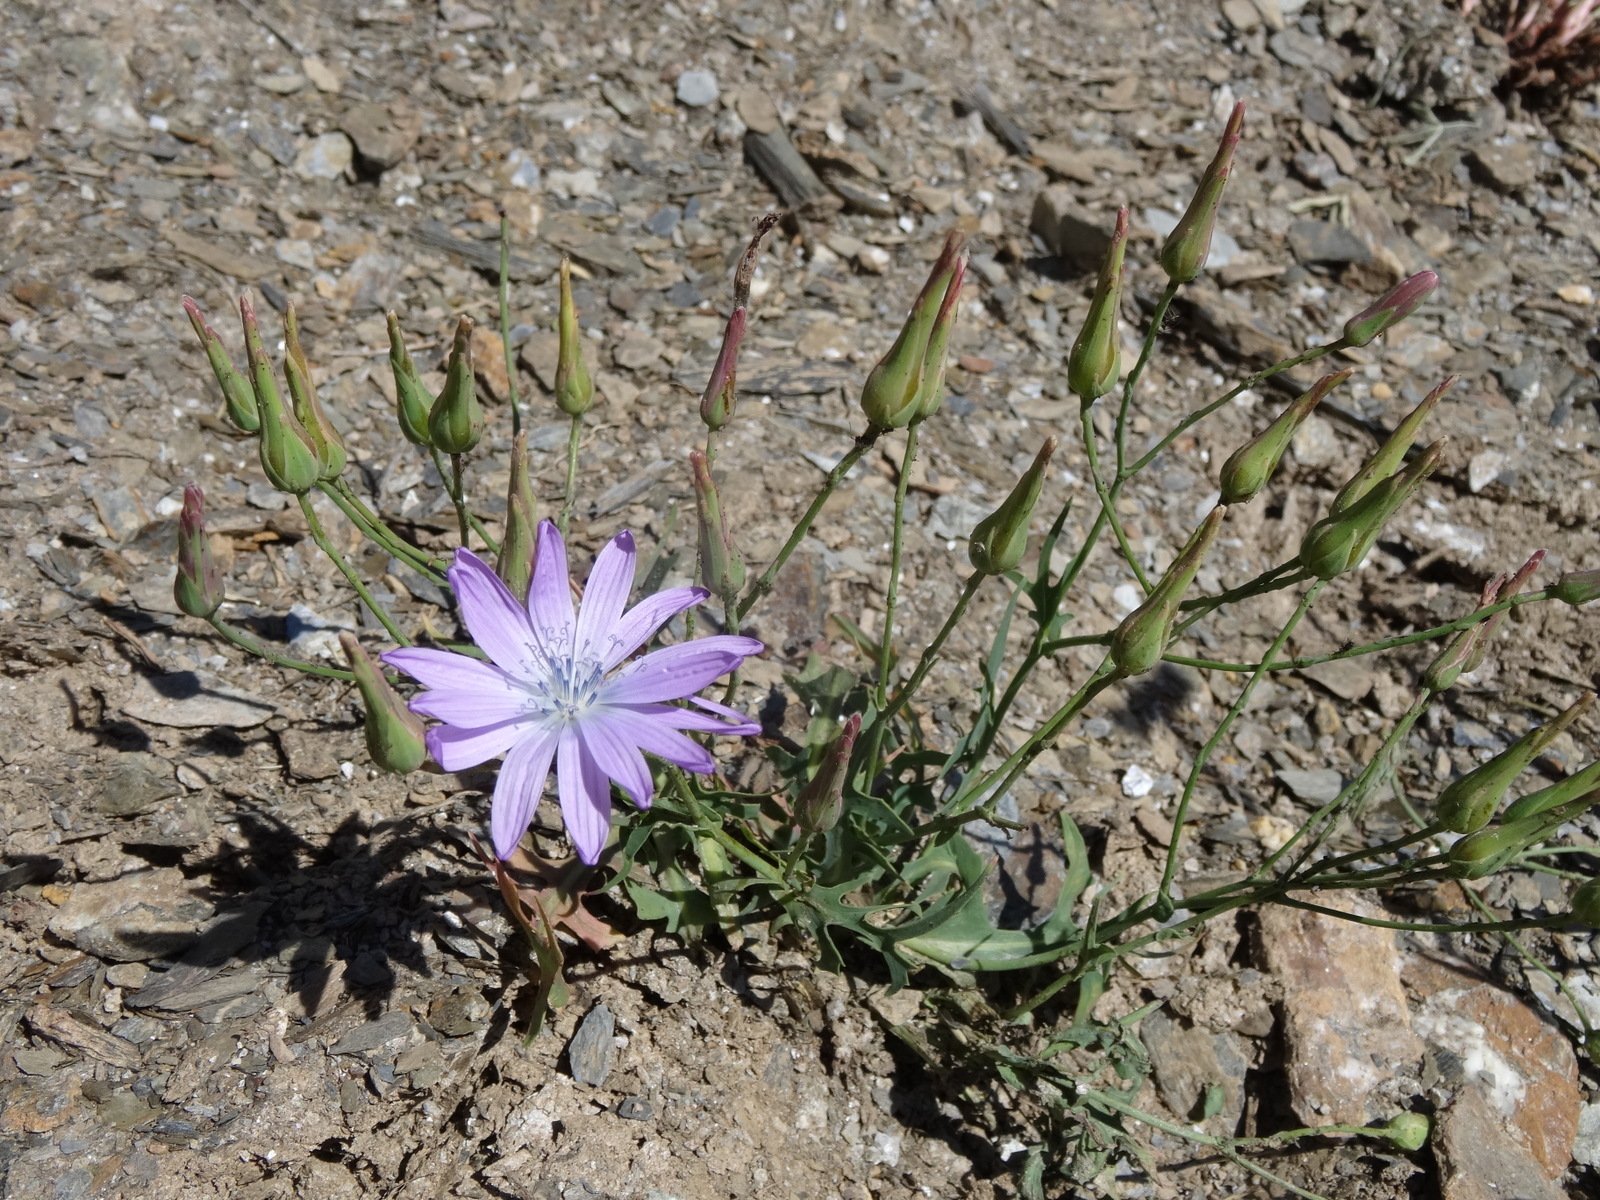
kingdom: Plantae
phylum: Tracheophyta
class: Magnoliopsida
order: Asterales
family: Asteraceae
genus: Lactuca
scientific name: Lactuca perennis
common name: Mountain lettuce
